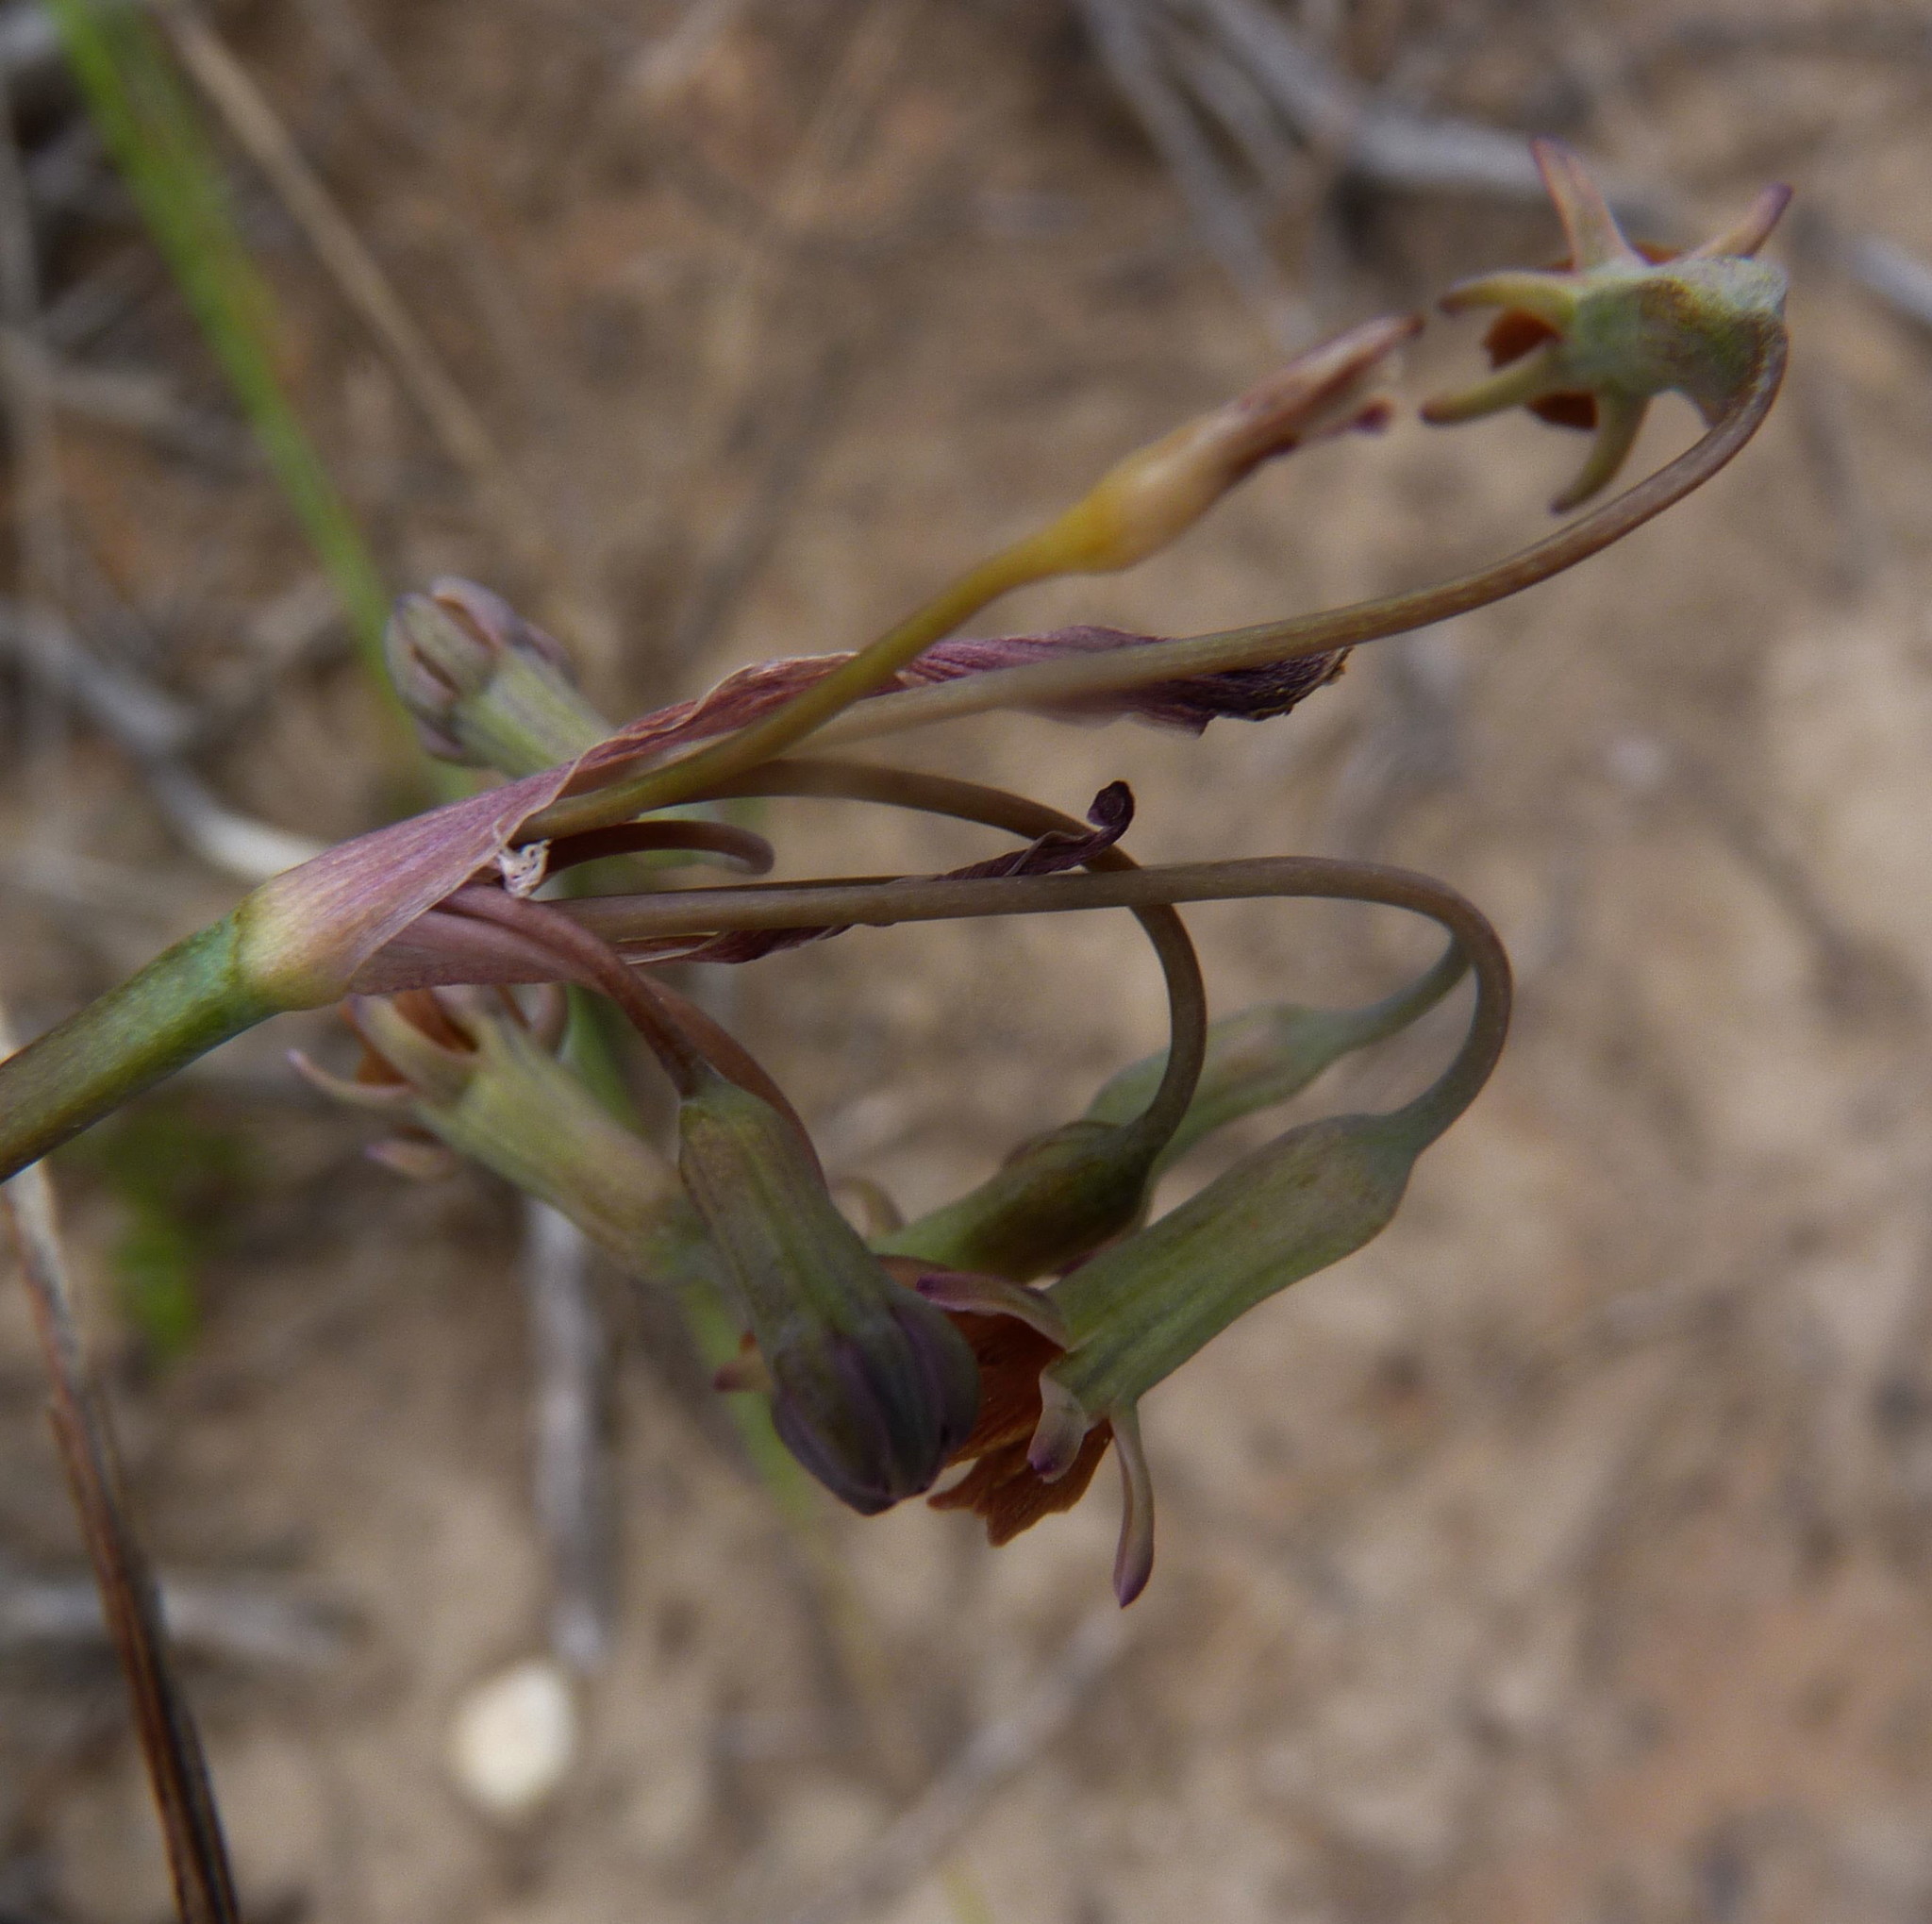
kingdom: Plantae
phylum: Tracheophyta
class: Liliopsida
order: Asparagales
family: Amaryllidaceae
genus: Tulbaghia
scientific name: Tulbaghia capensis
